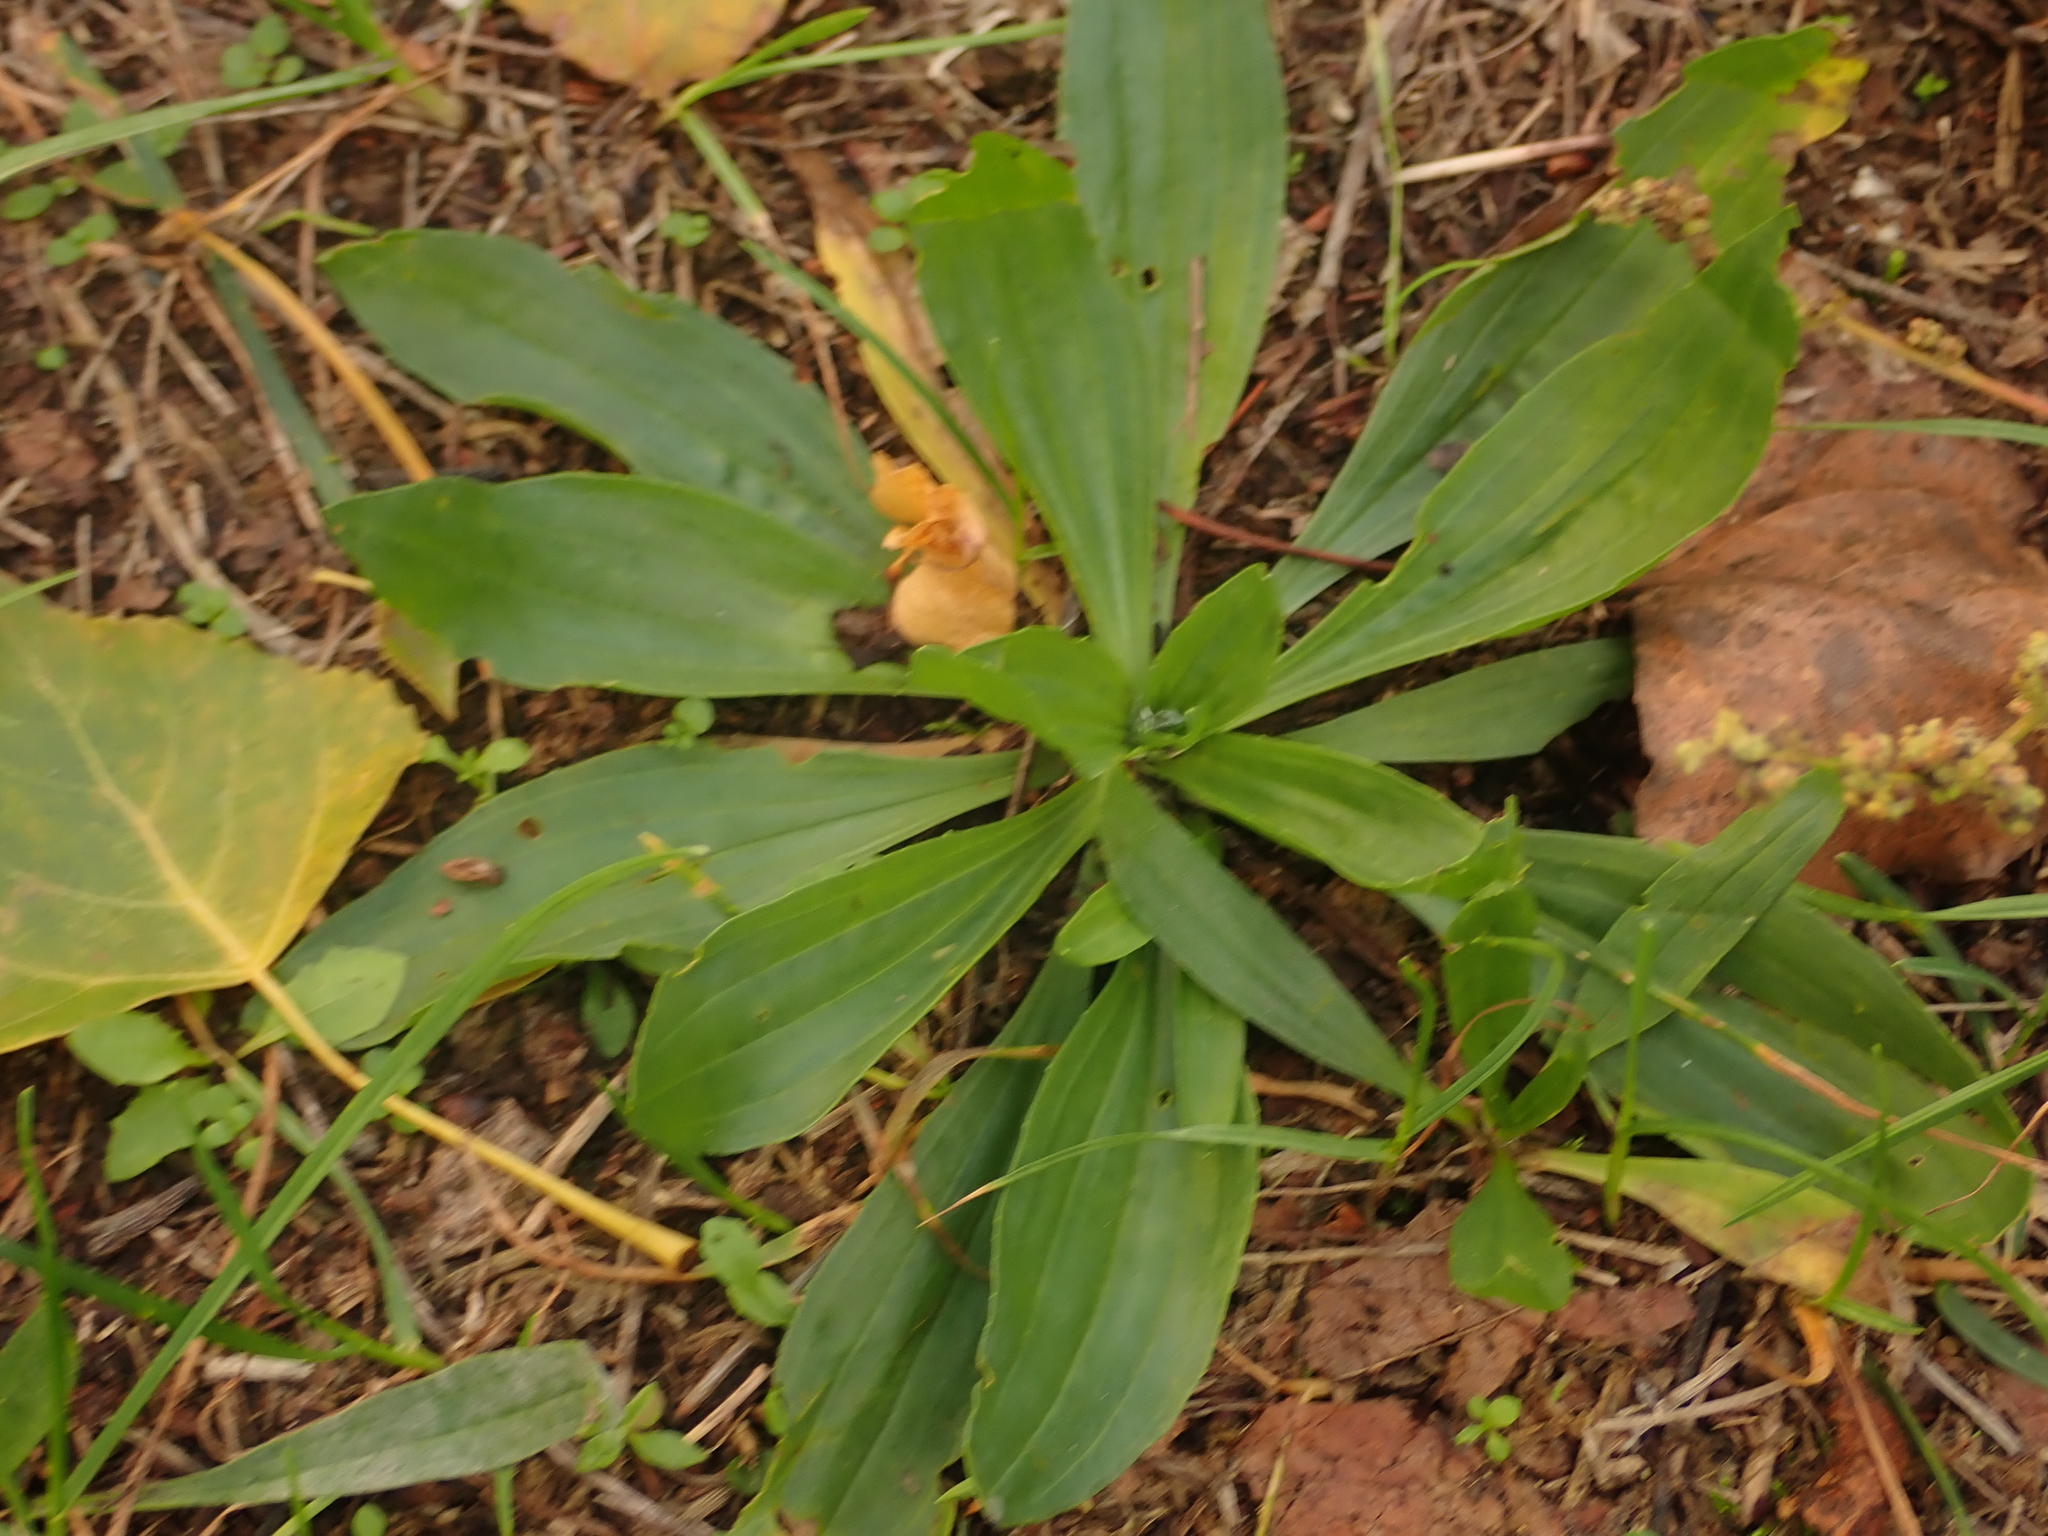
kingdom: Plantae
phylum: Tracheophyta
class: Magnoliopsida
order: Lamiales
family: Plantaginaceae
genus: Plantago
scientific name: Plantago lanceolata
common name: Ribwort plantain
